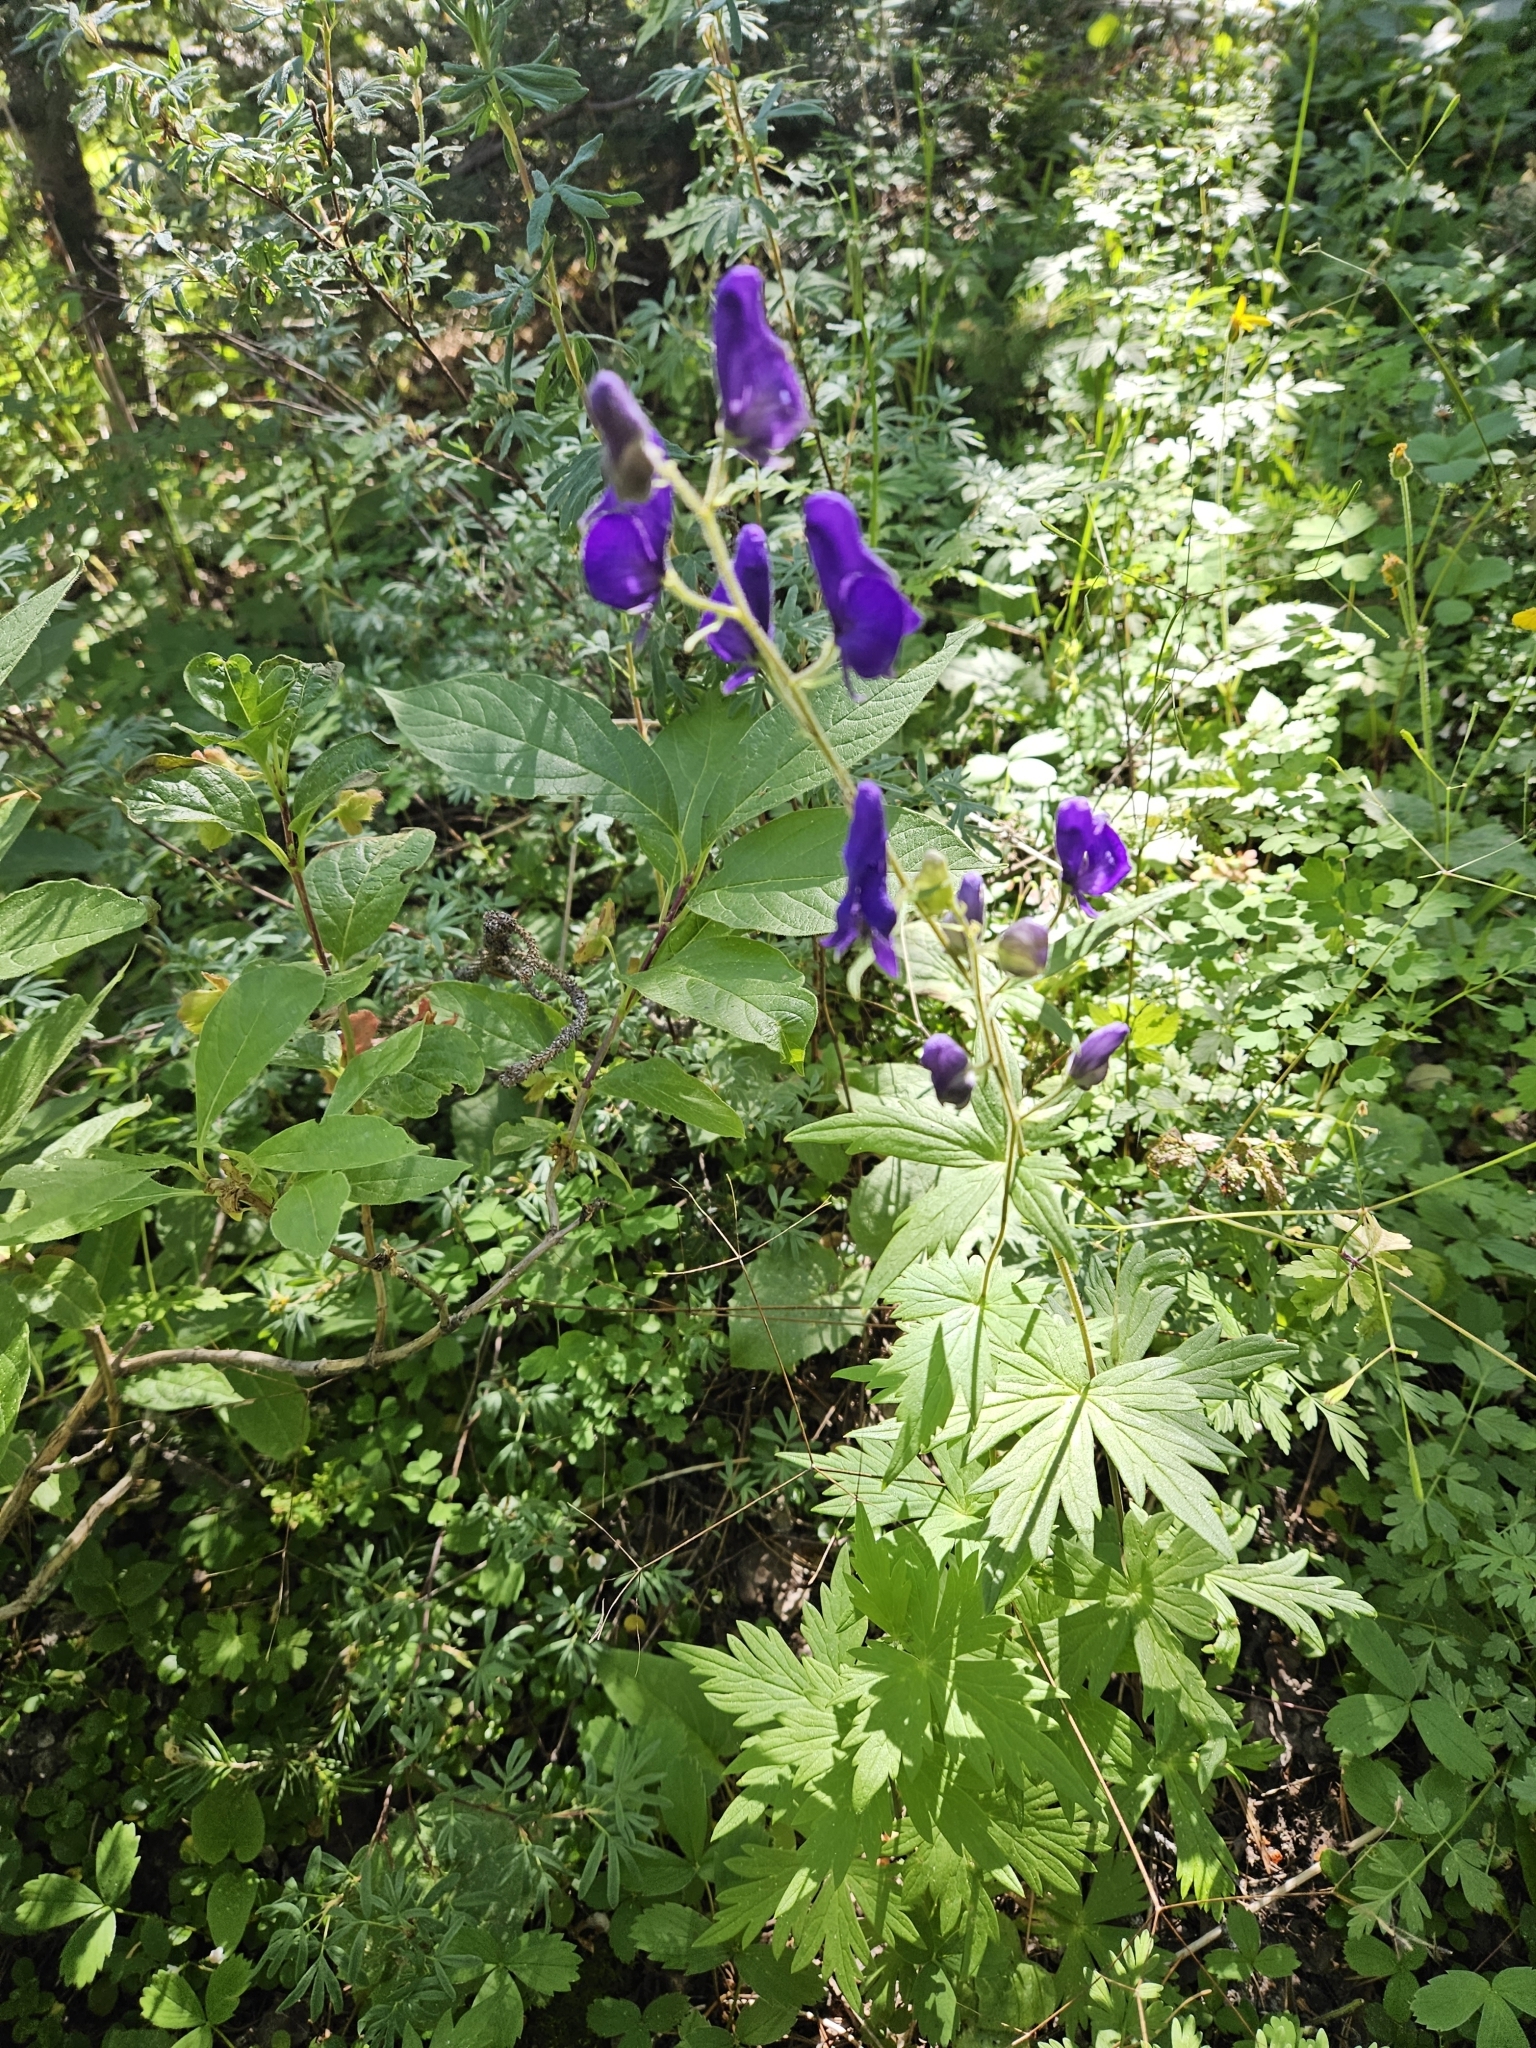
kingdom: Plantae
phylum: Tracheophyta
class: Magnoliopsida
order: Ranunculales
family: Ranunculaceae
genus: Aconitum
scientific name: Aconitum columbianum
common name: Columbia aconite
